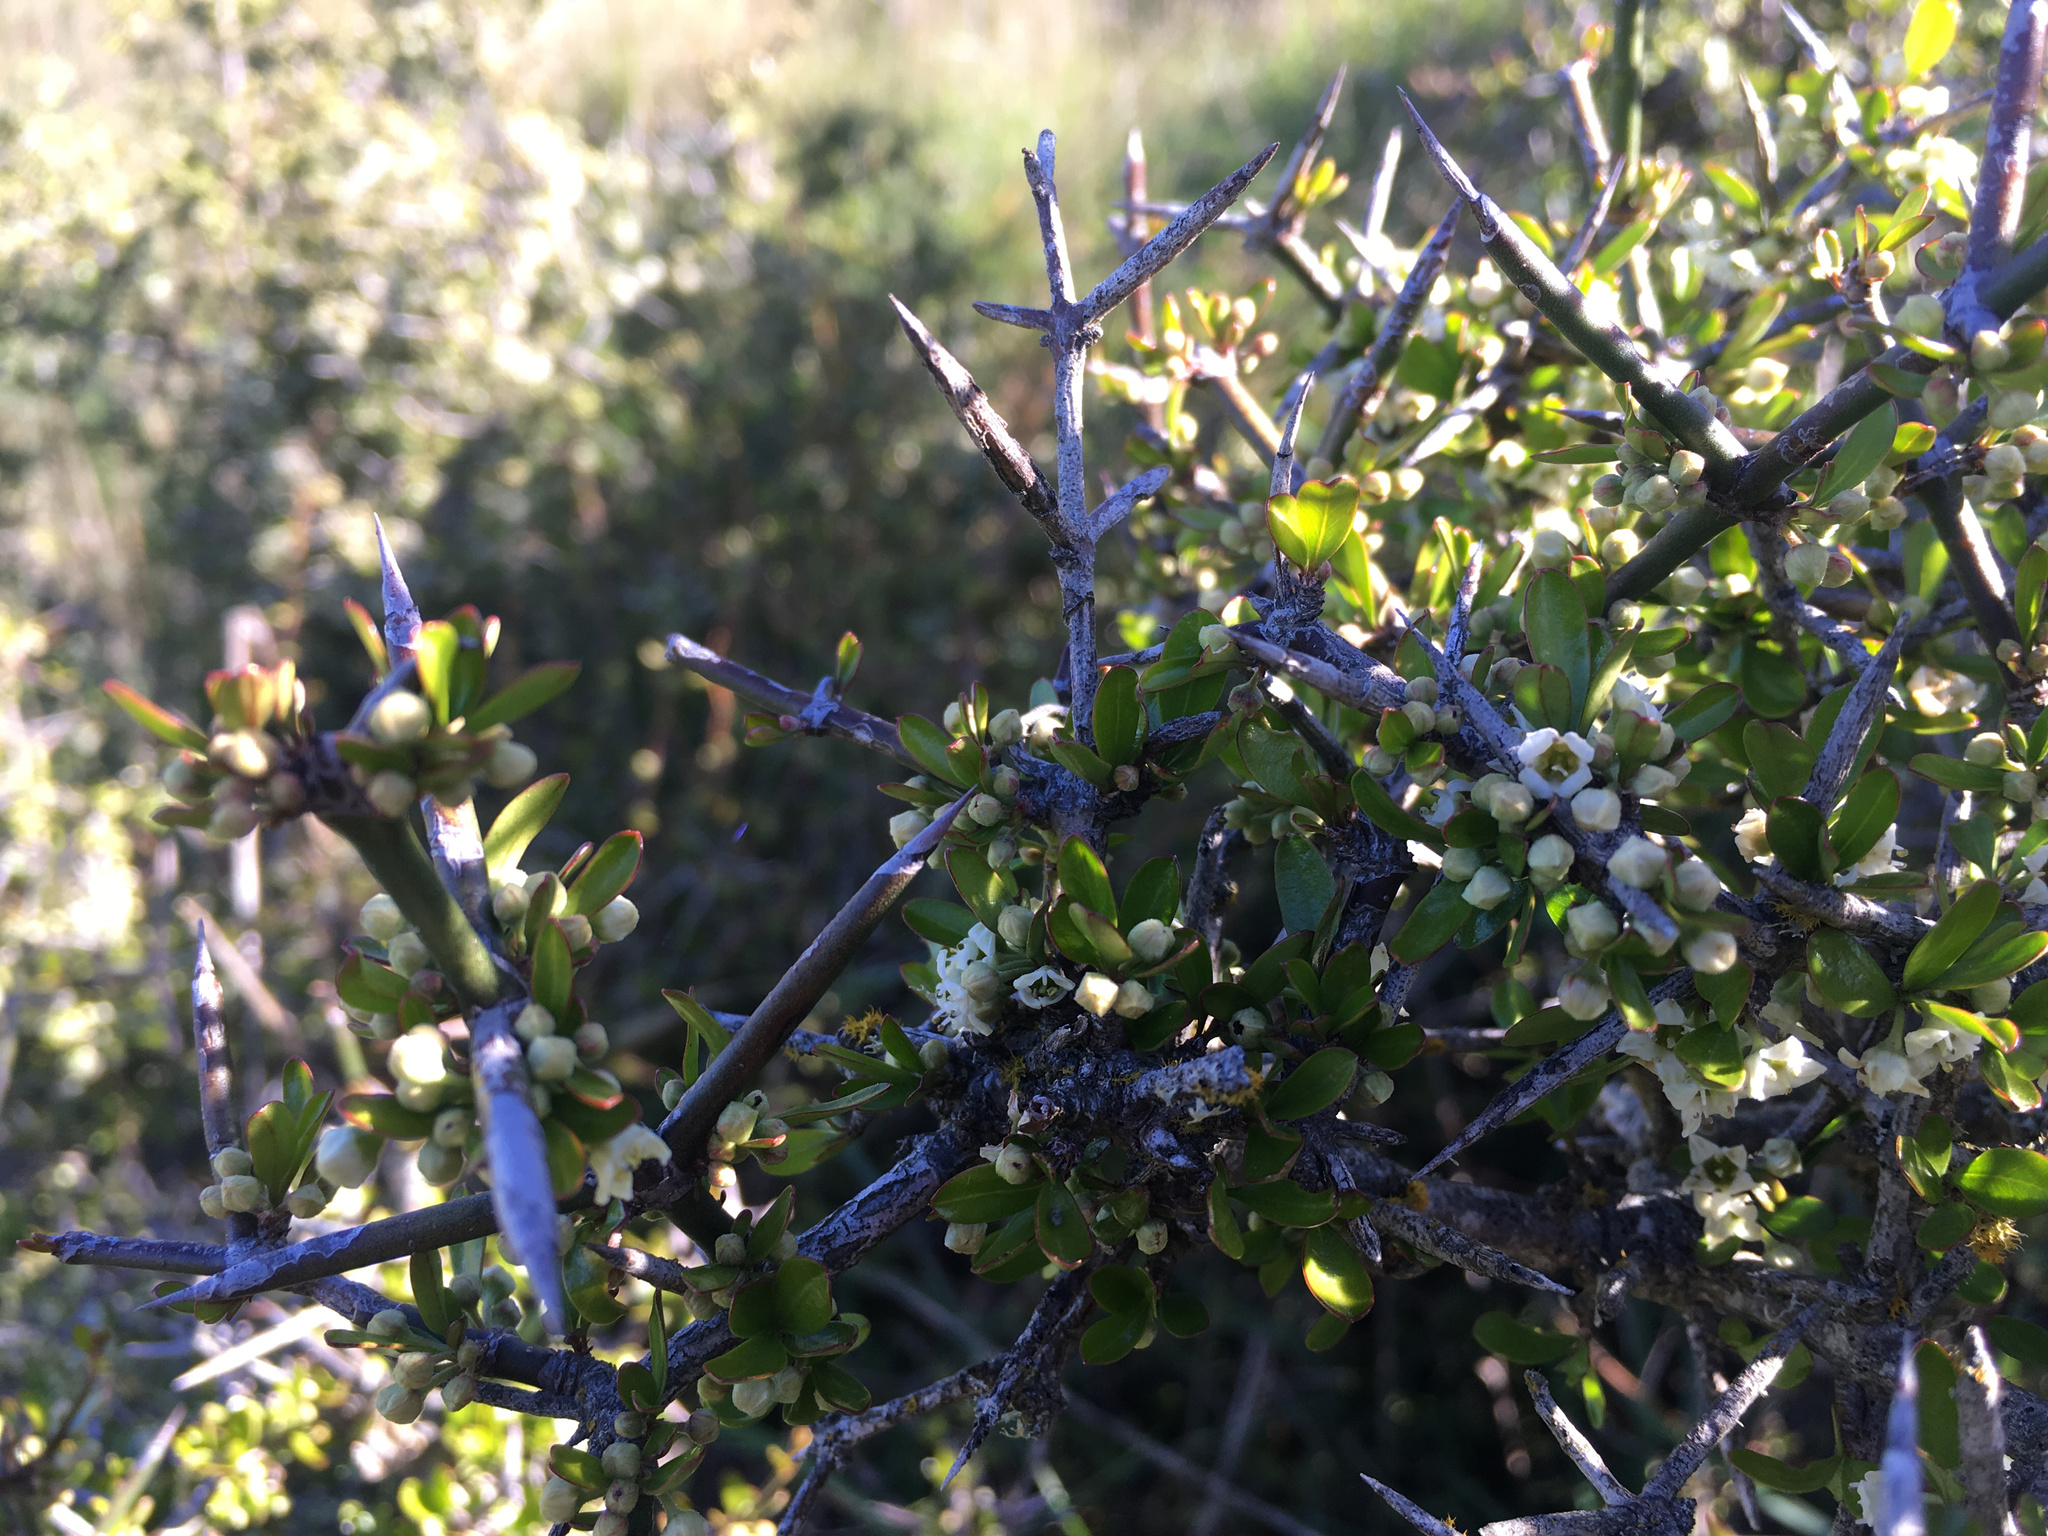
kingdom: Plantae
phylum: Tracheophyta
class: Magnoliopsida
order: Rosales
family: Rhamnaceae
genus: Discaria
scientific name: Discaria toumatou
